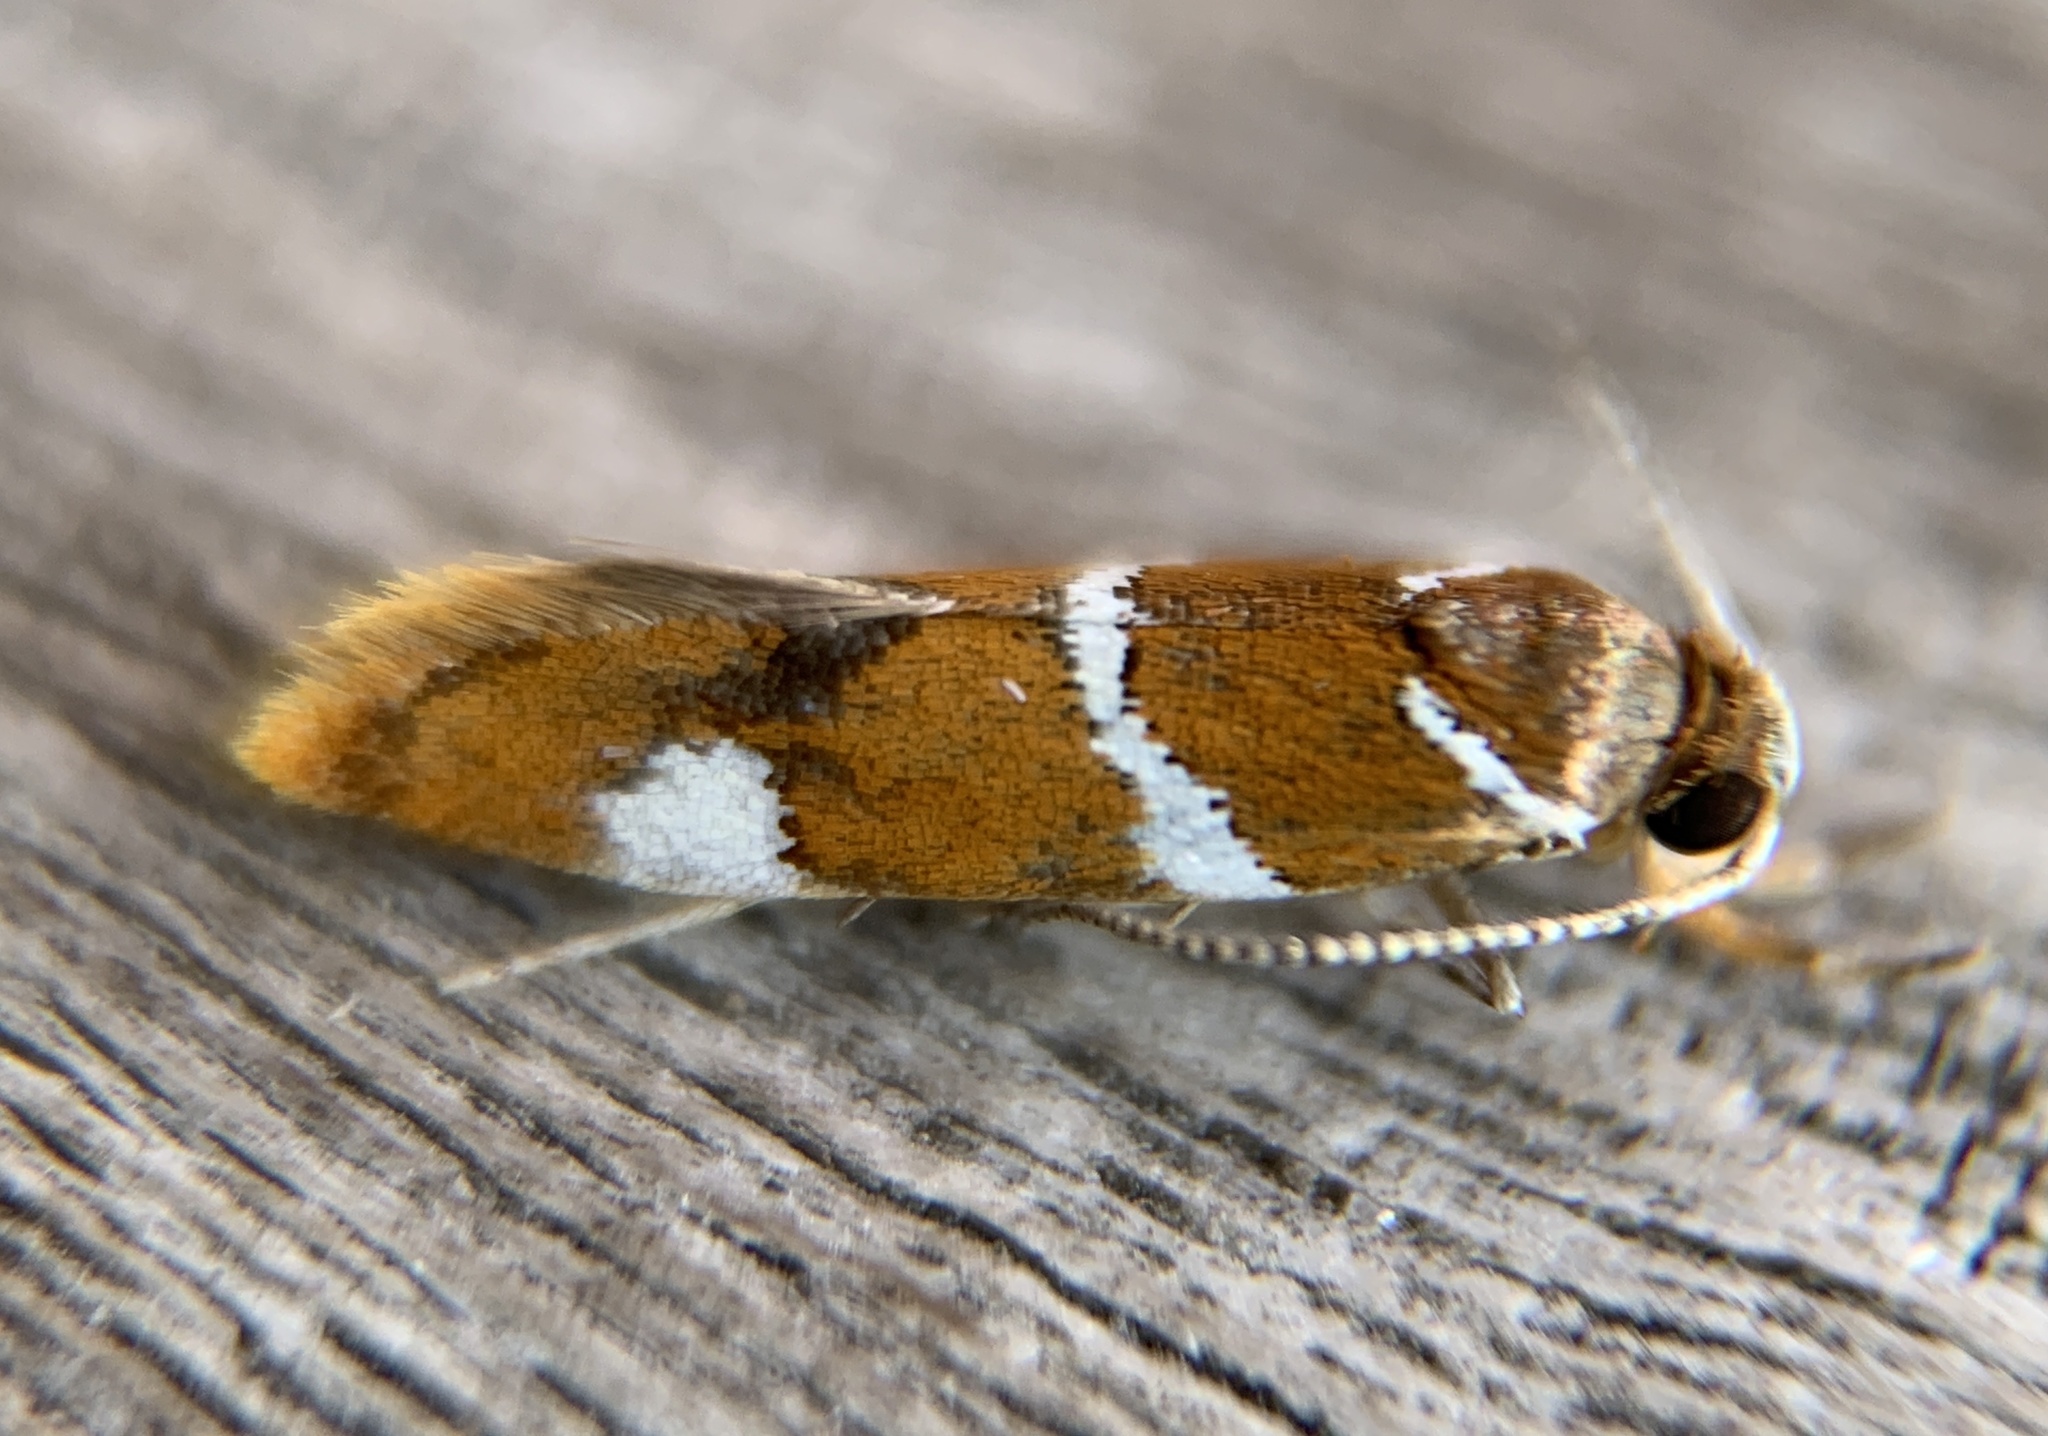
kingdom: Animalia
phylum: Arthropoda
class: Insecta
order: Lepidoptera
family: Oecophoridae
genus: Promalactis
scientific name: Promalactis suzukiella
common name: Moth
